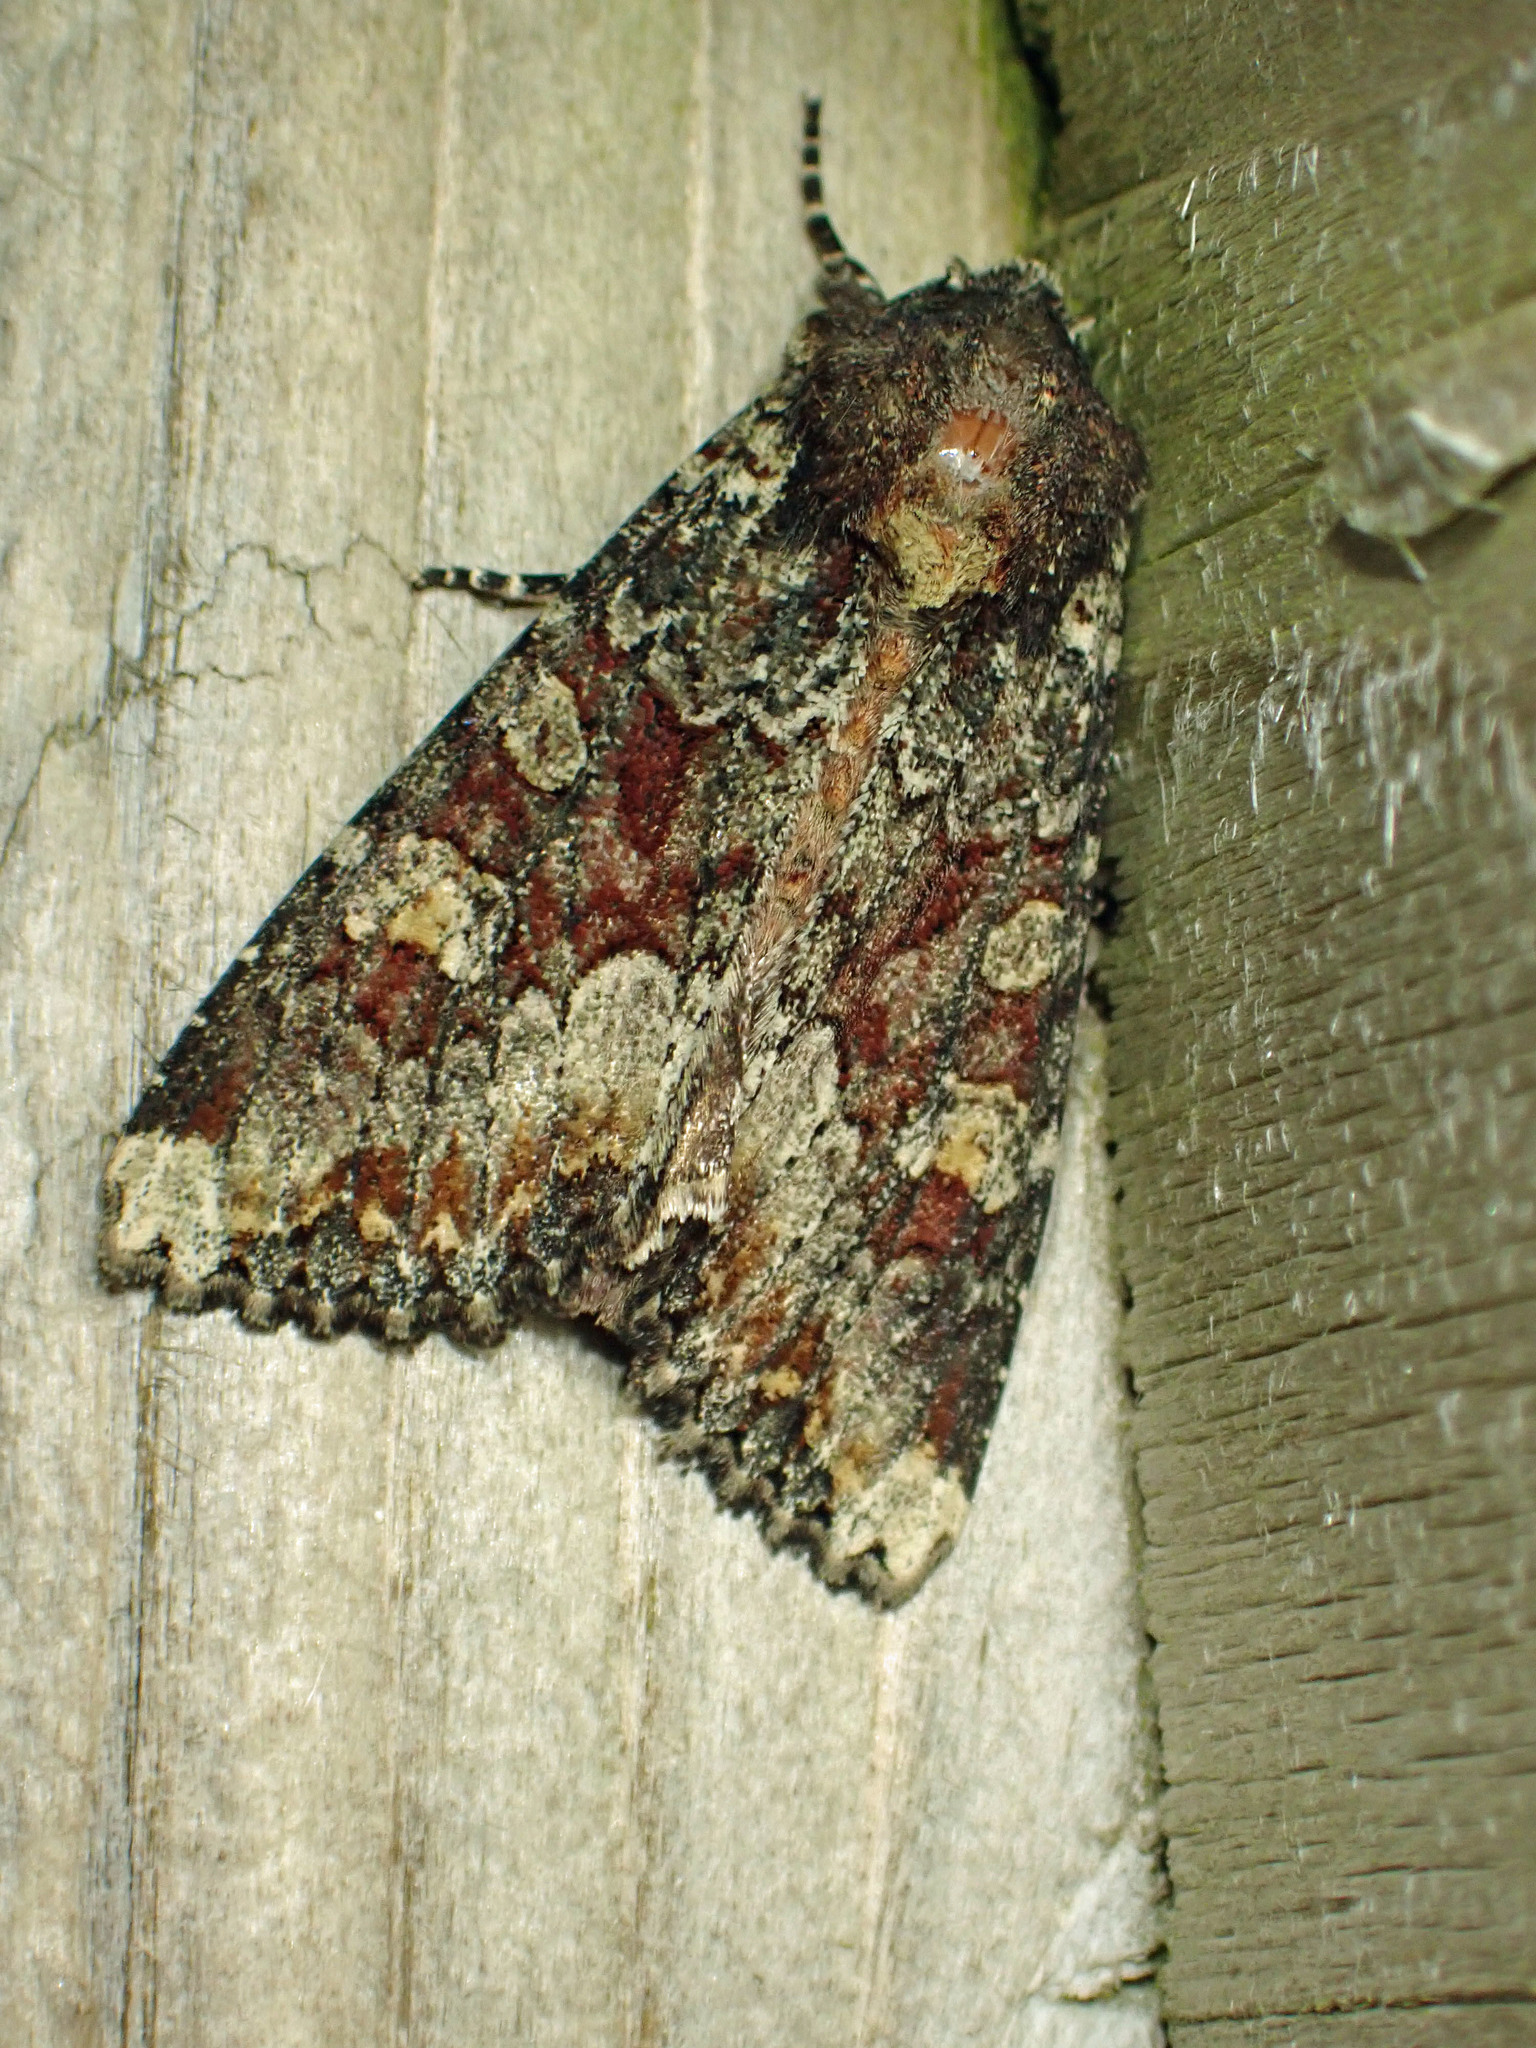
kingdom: Animalia
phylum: Arthropoda
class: Insecta
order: Lepidoptera
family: Noctuidae
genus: Apamea
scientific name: Apamea amputatrix
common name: Yellow-headed cutworm moth
